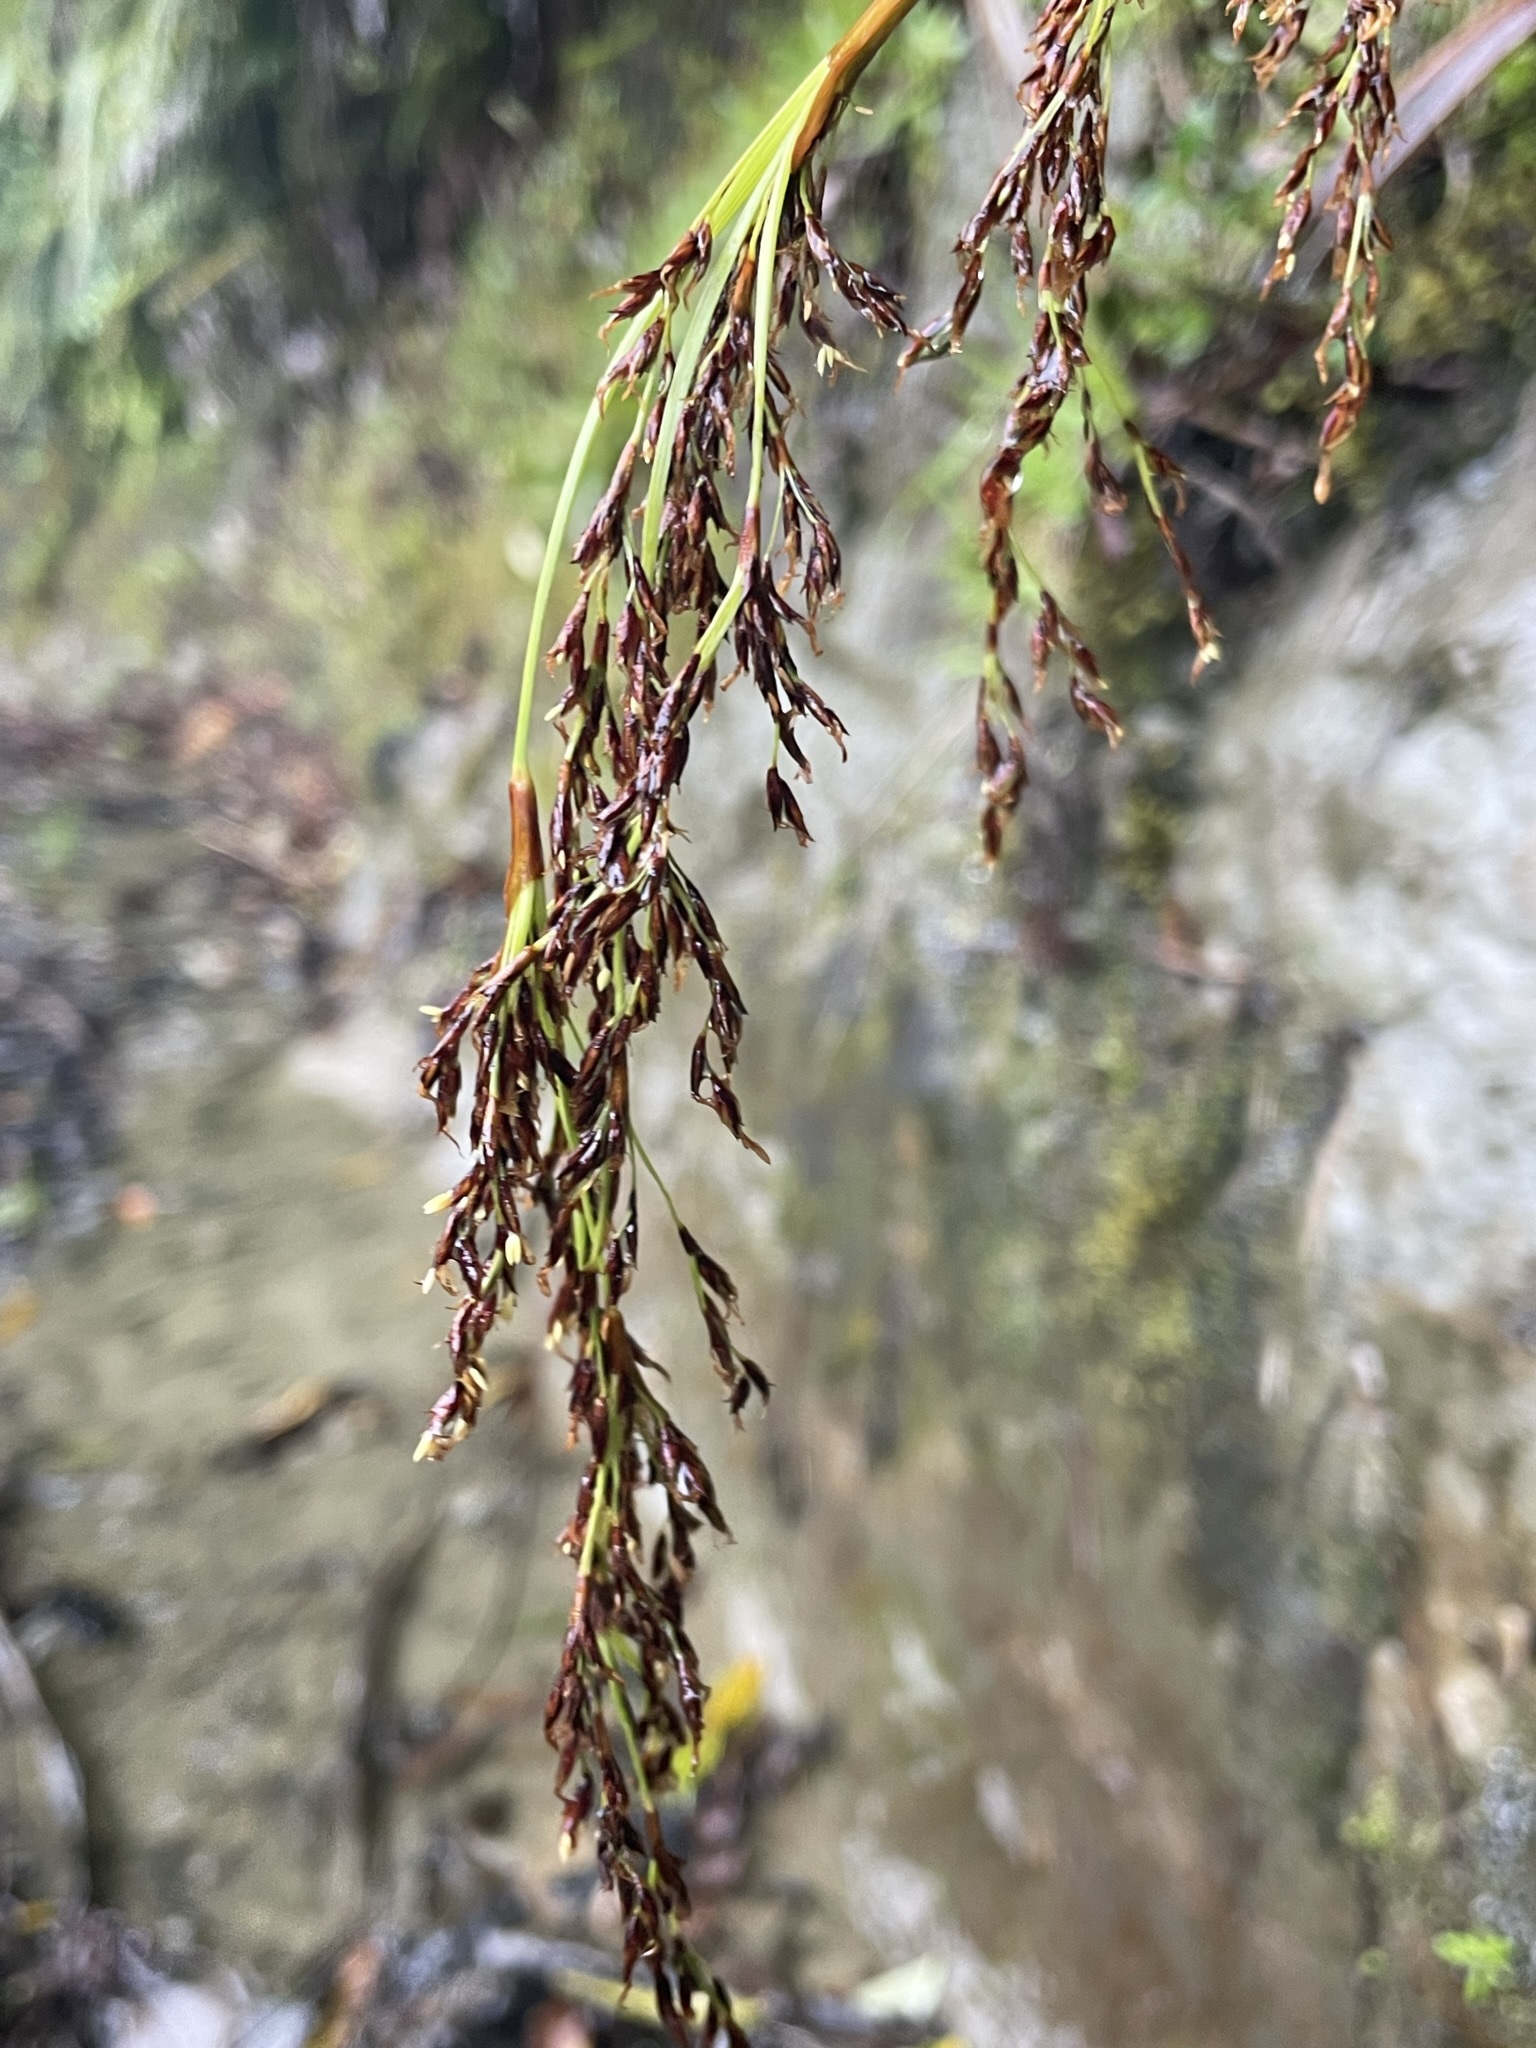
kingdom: Plantae
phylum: Tracheophyta
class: Liliopsida
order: Poales
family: Cyperaceae
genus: Machaerina
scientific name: Machaerina sinclairii
